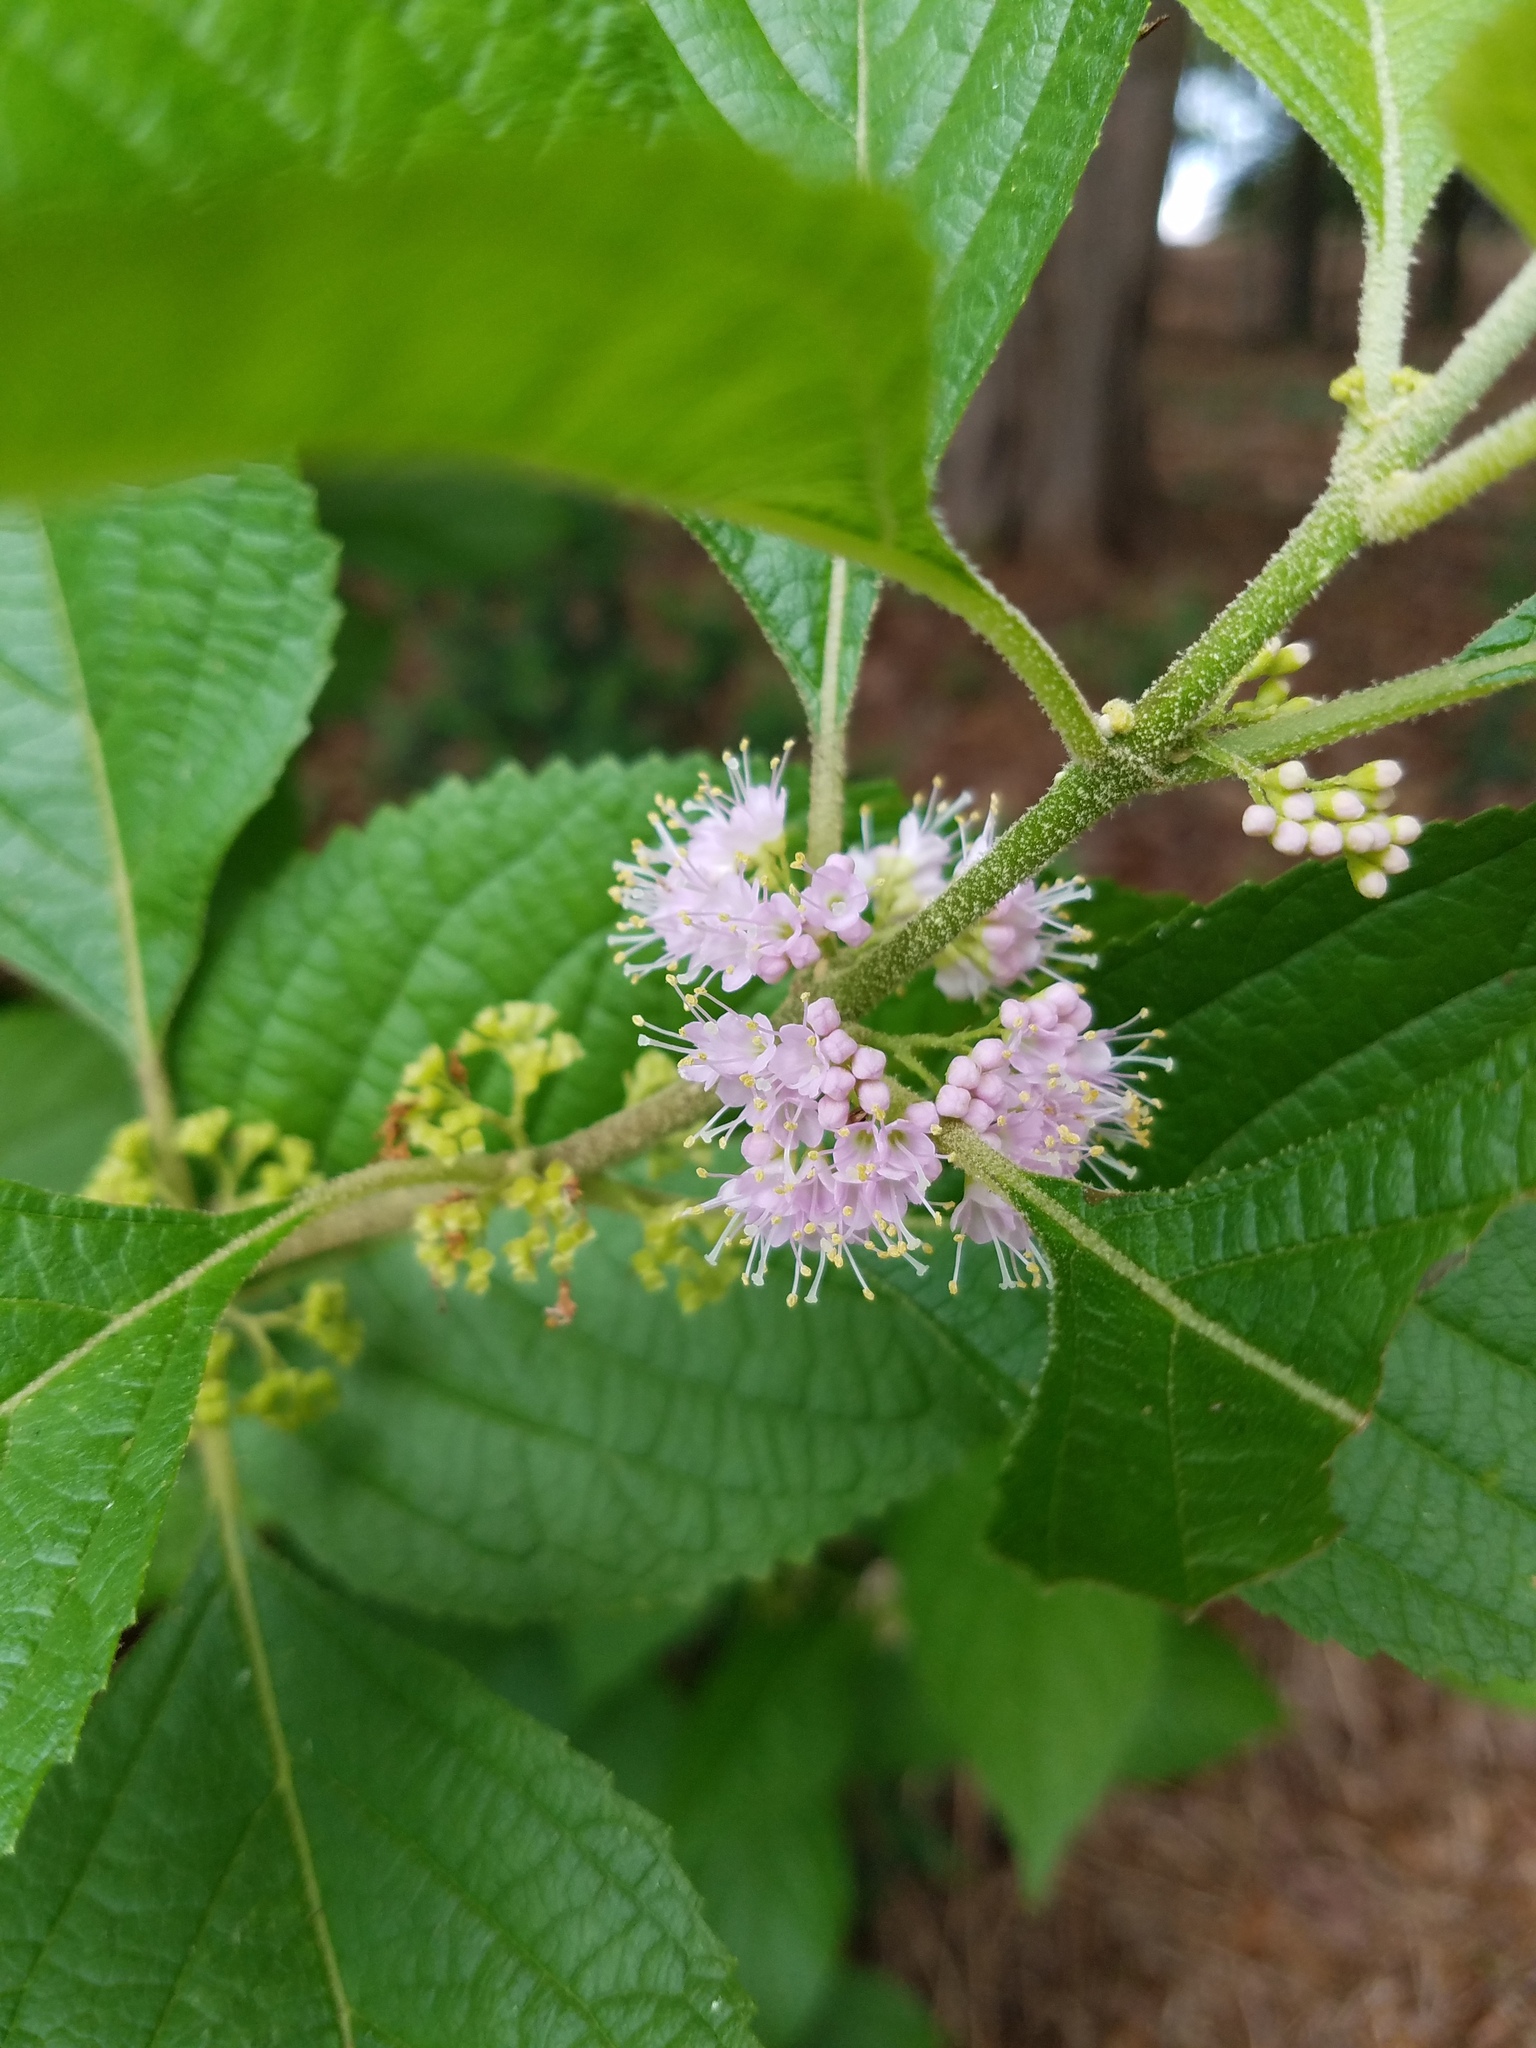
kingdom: Plantae
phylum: Tracheophyta
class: Magnoliopsida
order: Lamiales
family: Lamiaceae
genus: Callicarpa
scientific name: Callicarpa americana
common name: American beautyberry
